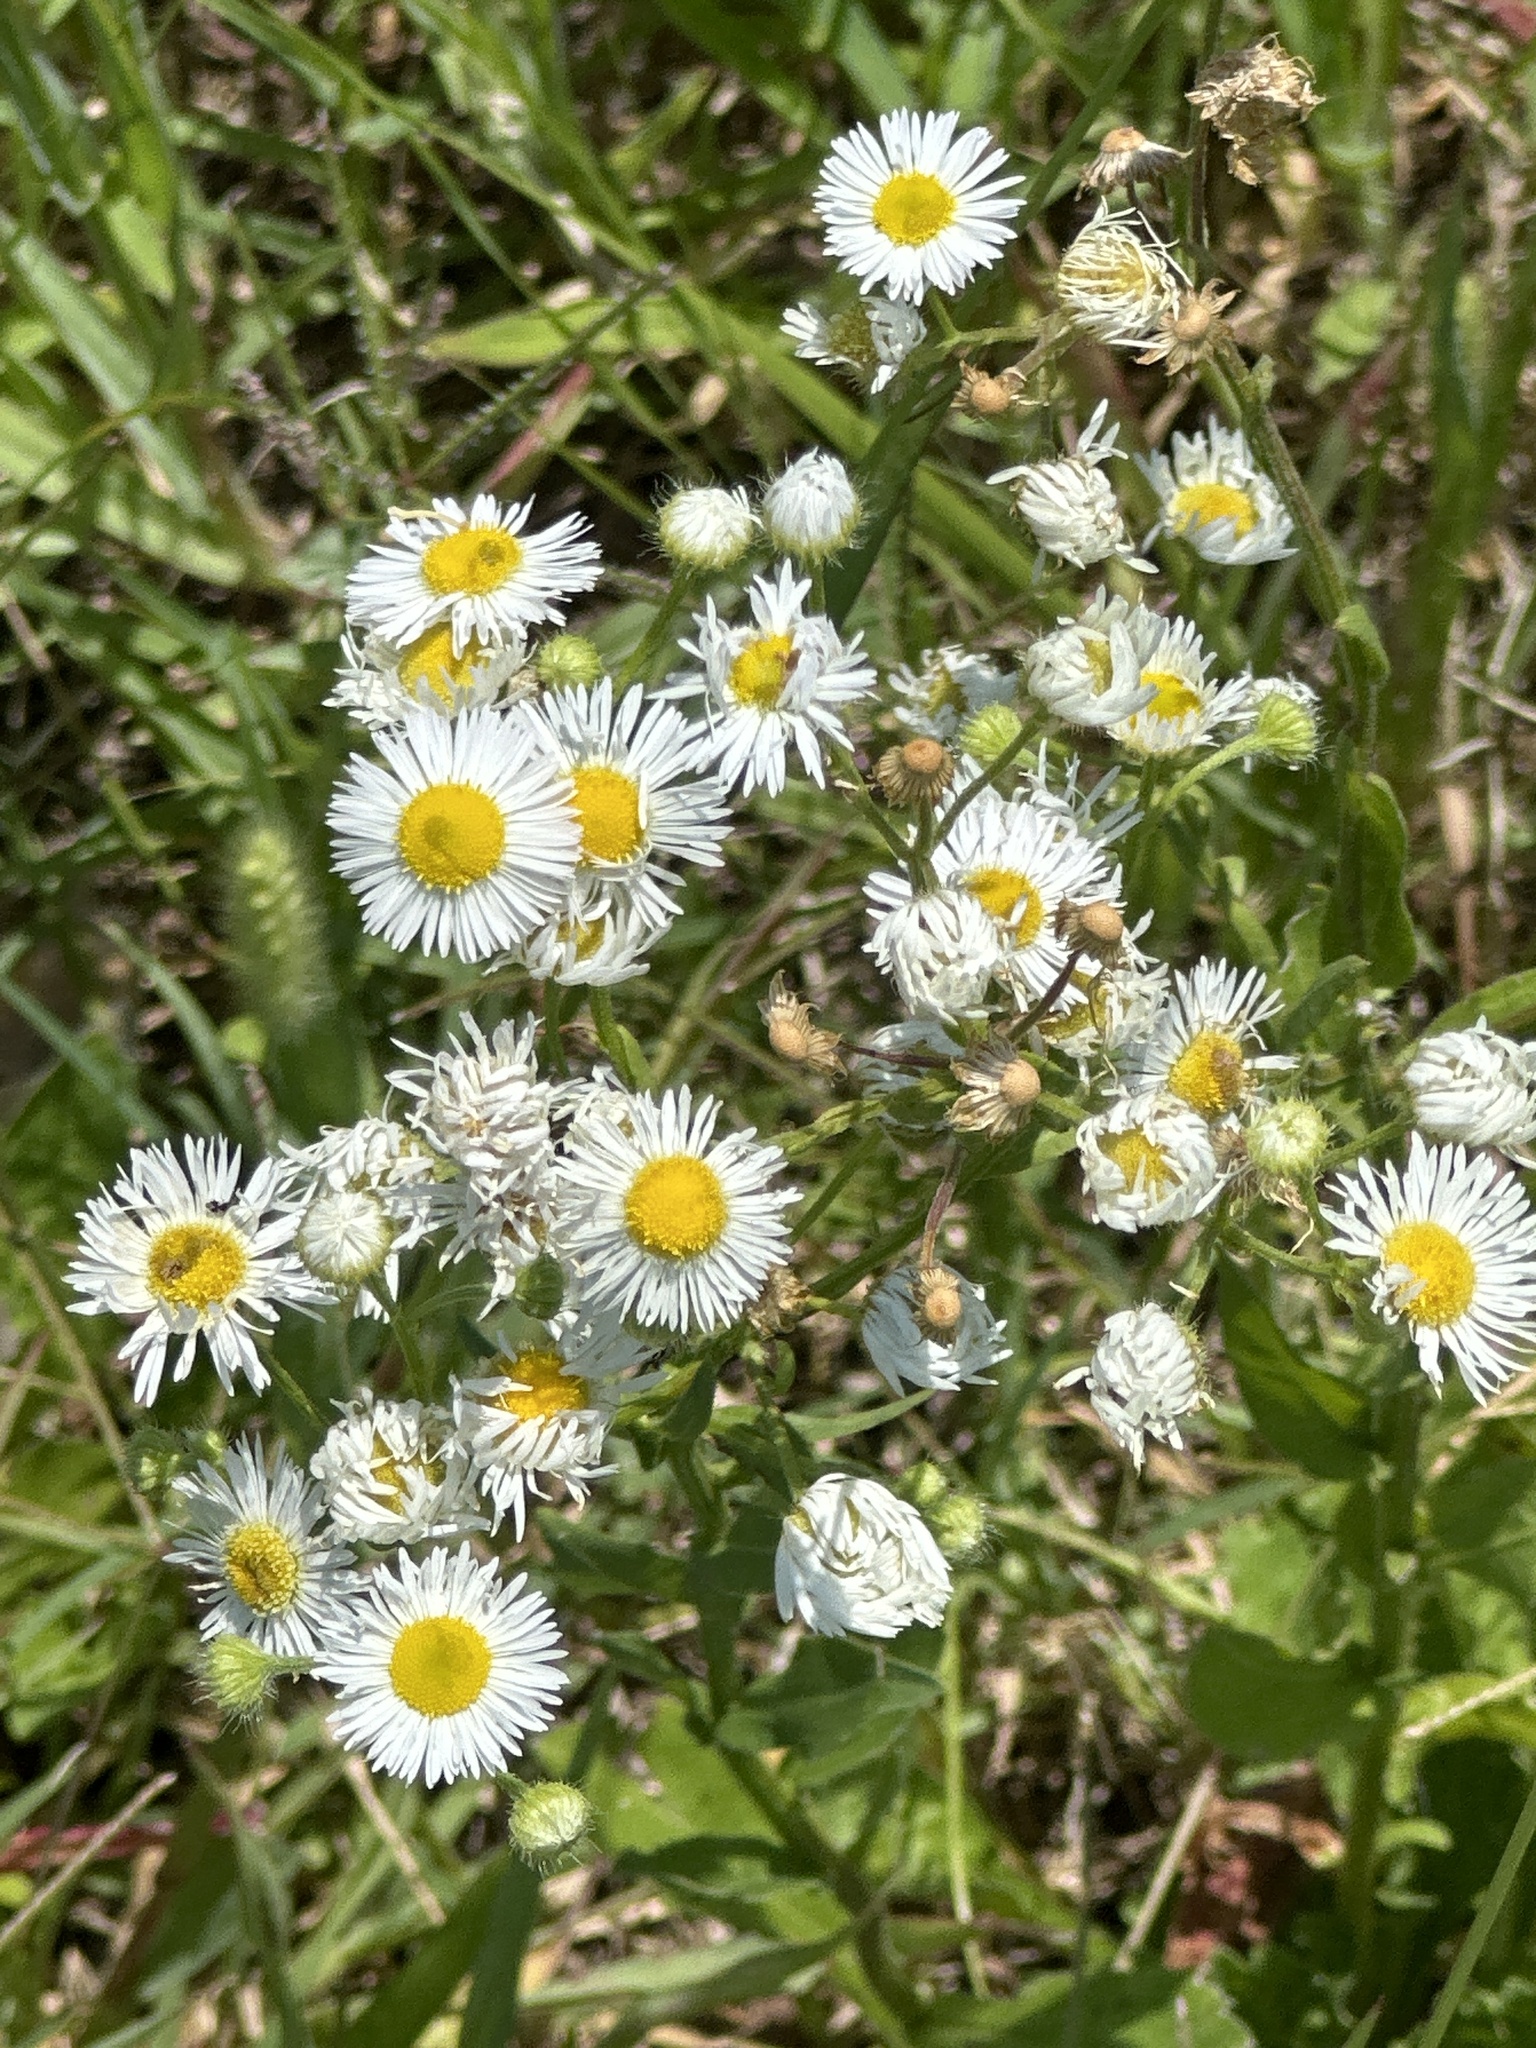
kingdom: Plantae
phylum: Tracheophyta
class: Magnoliopsida
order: Asterales
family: Asteraceae
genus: Erigeron
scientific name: Erigeron strigosus
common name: Common eastern fleabane
